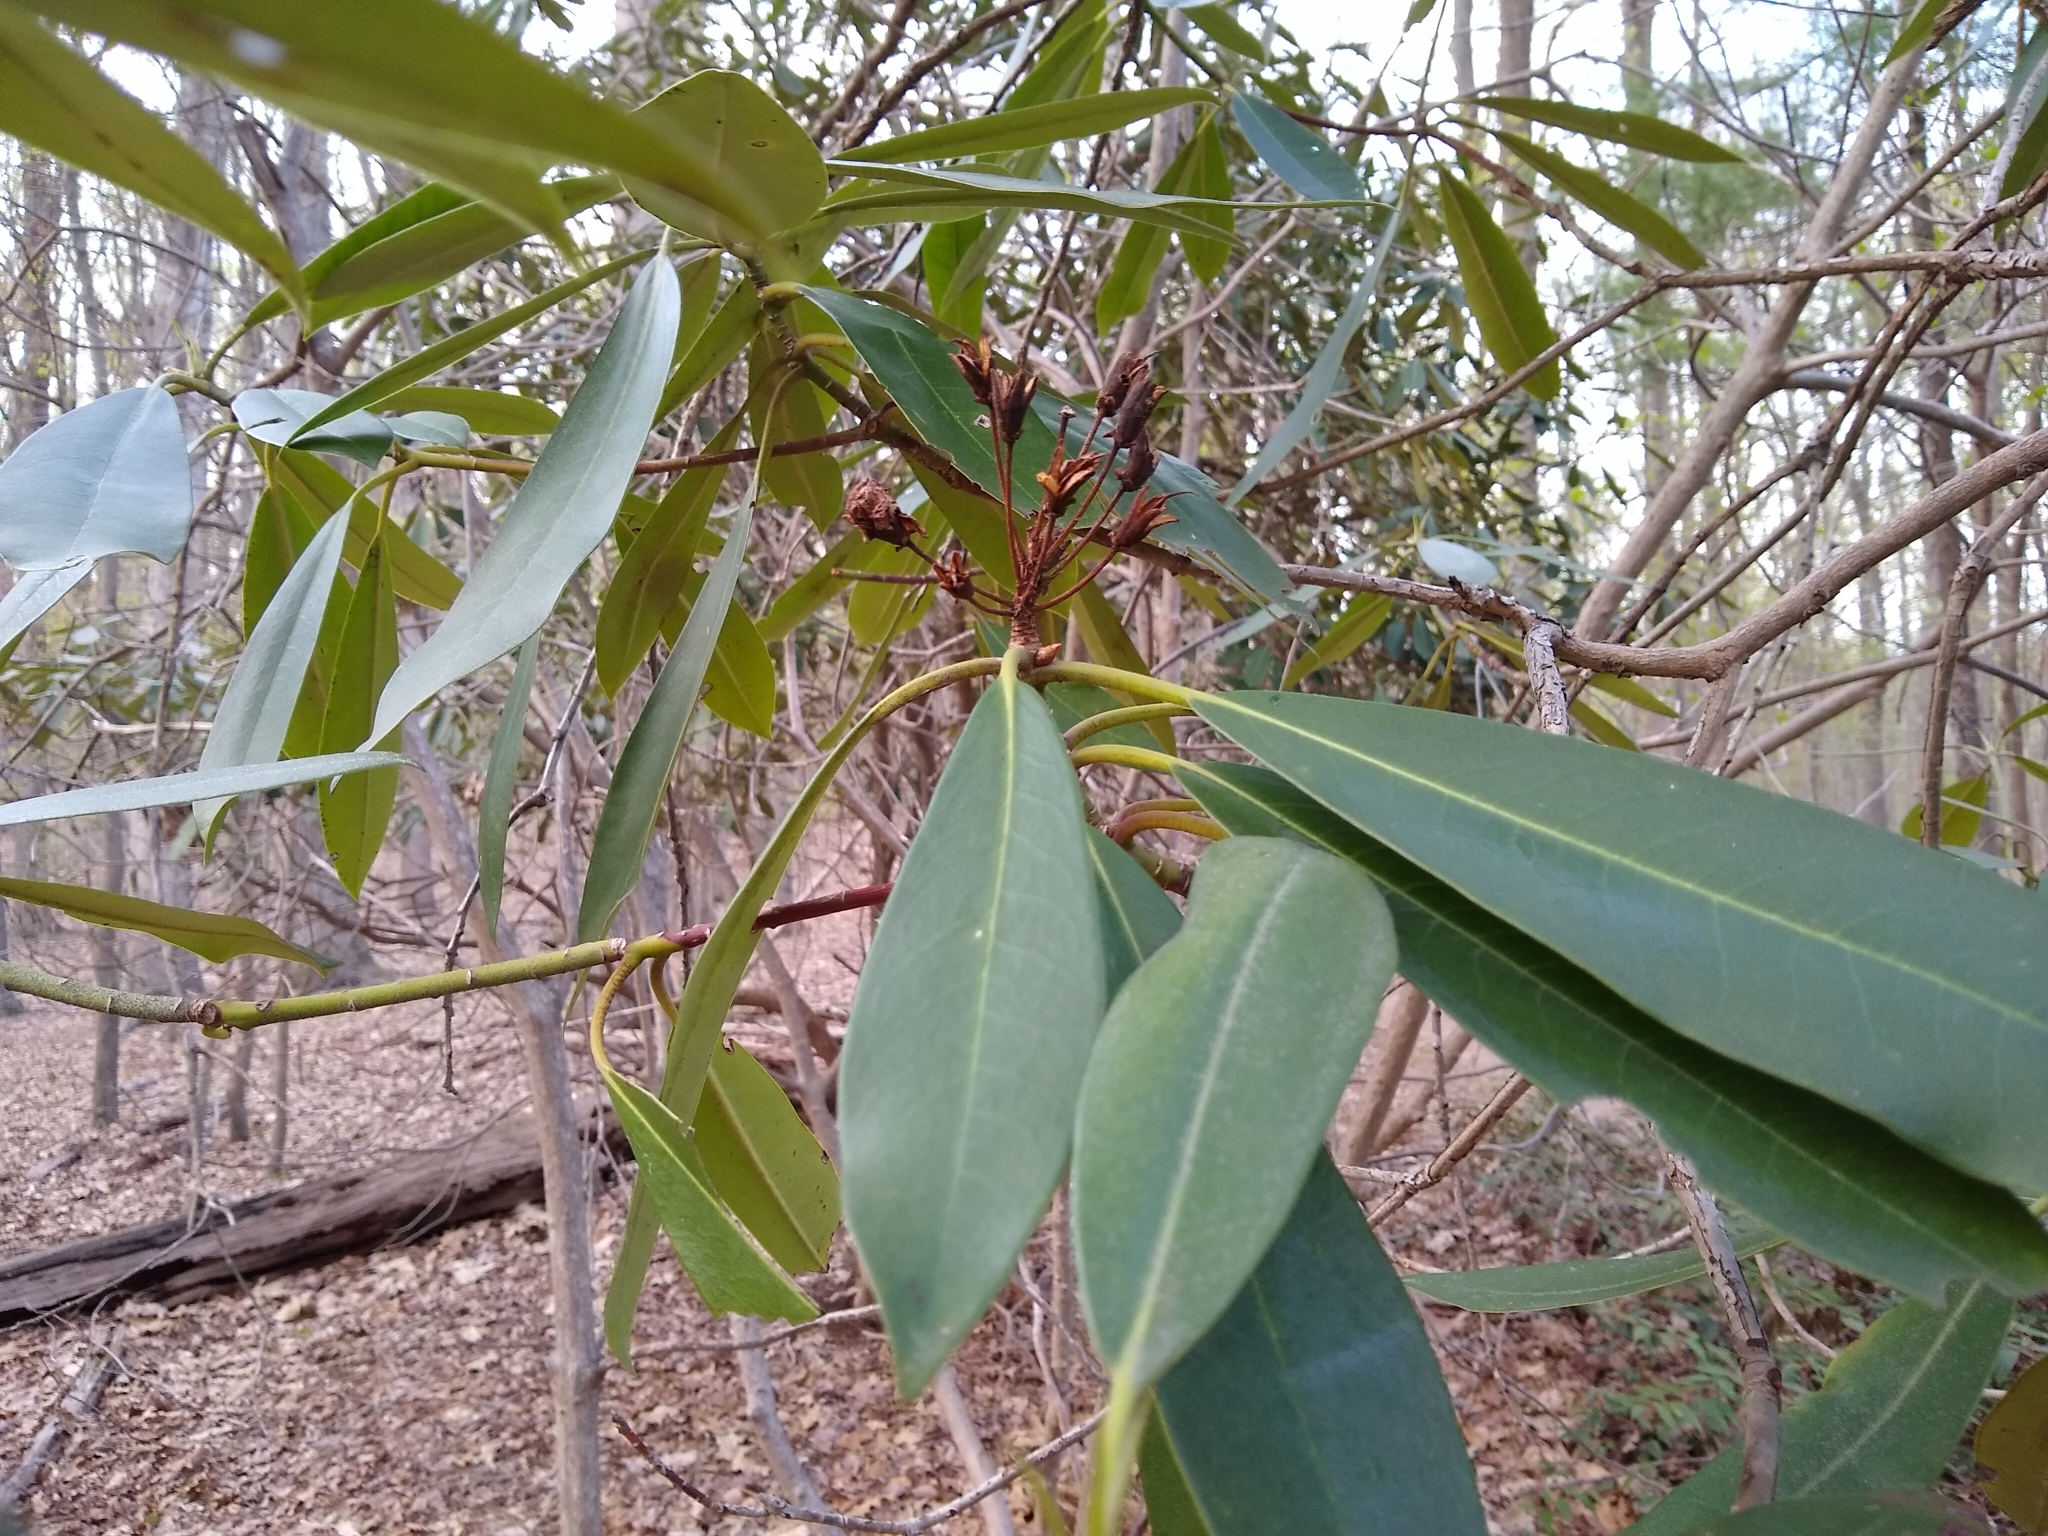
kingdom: Plantae
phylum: Tracheophyta
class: Magnoliopsida
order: Ericales
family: Ericaceae
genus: Rhododendron
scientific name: Rhododendron maximum
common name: Great rhododendron
